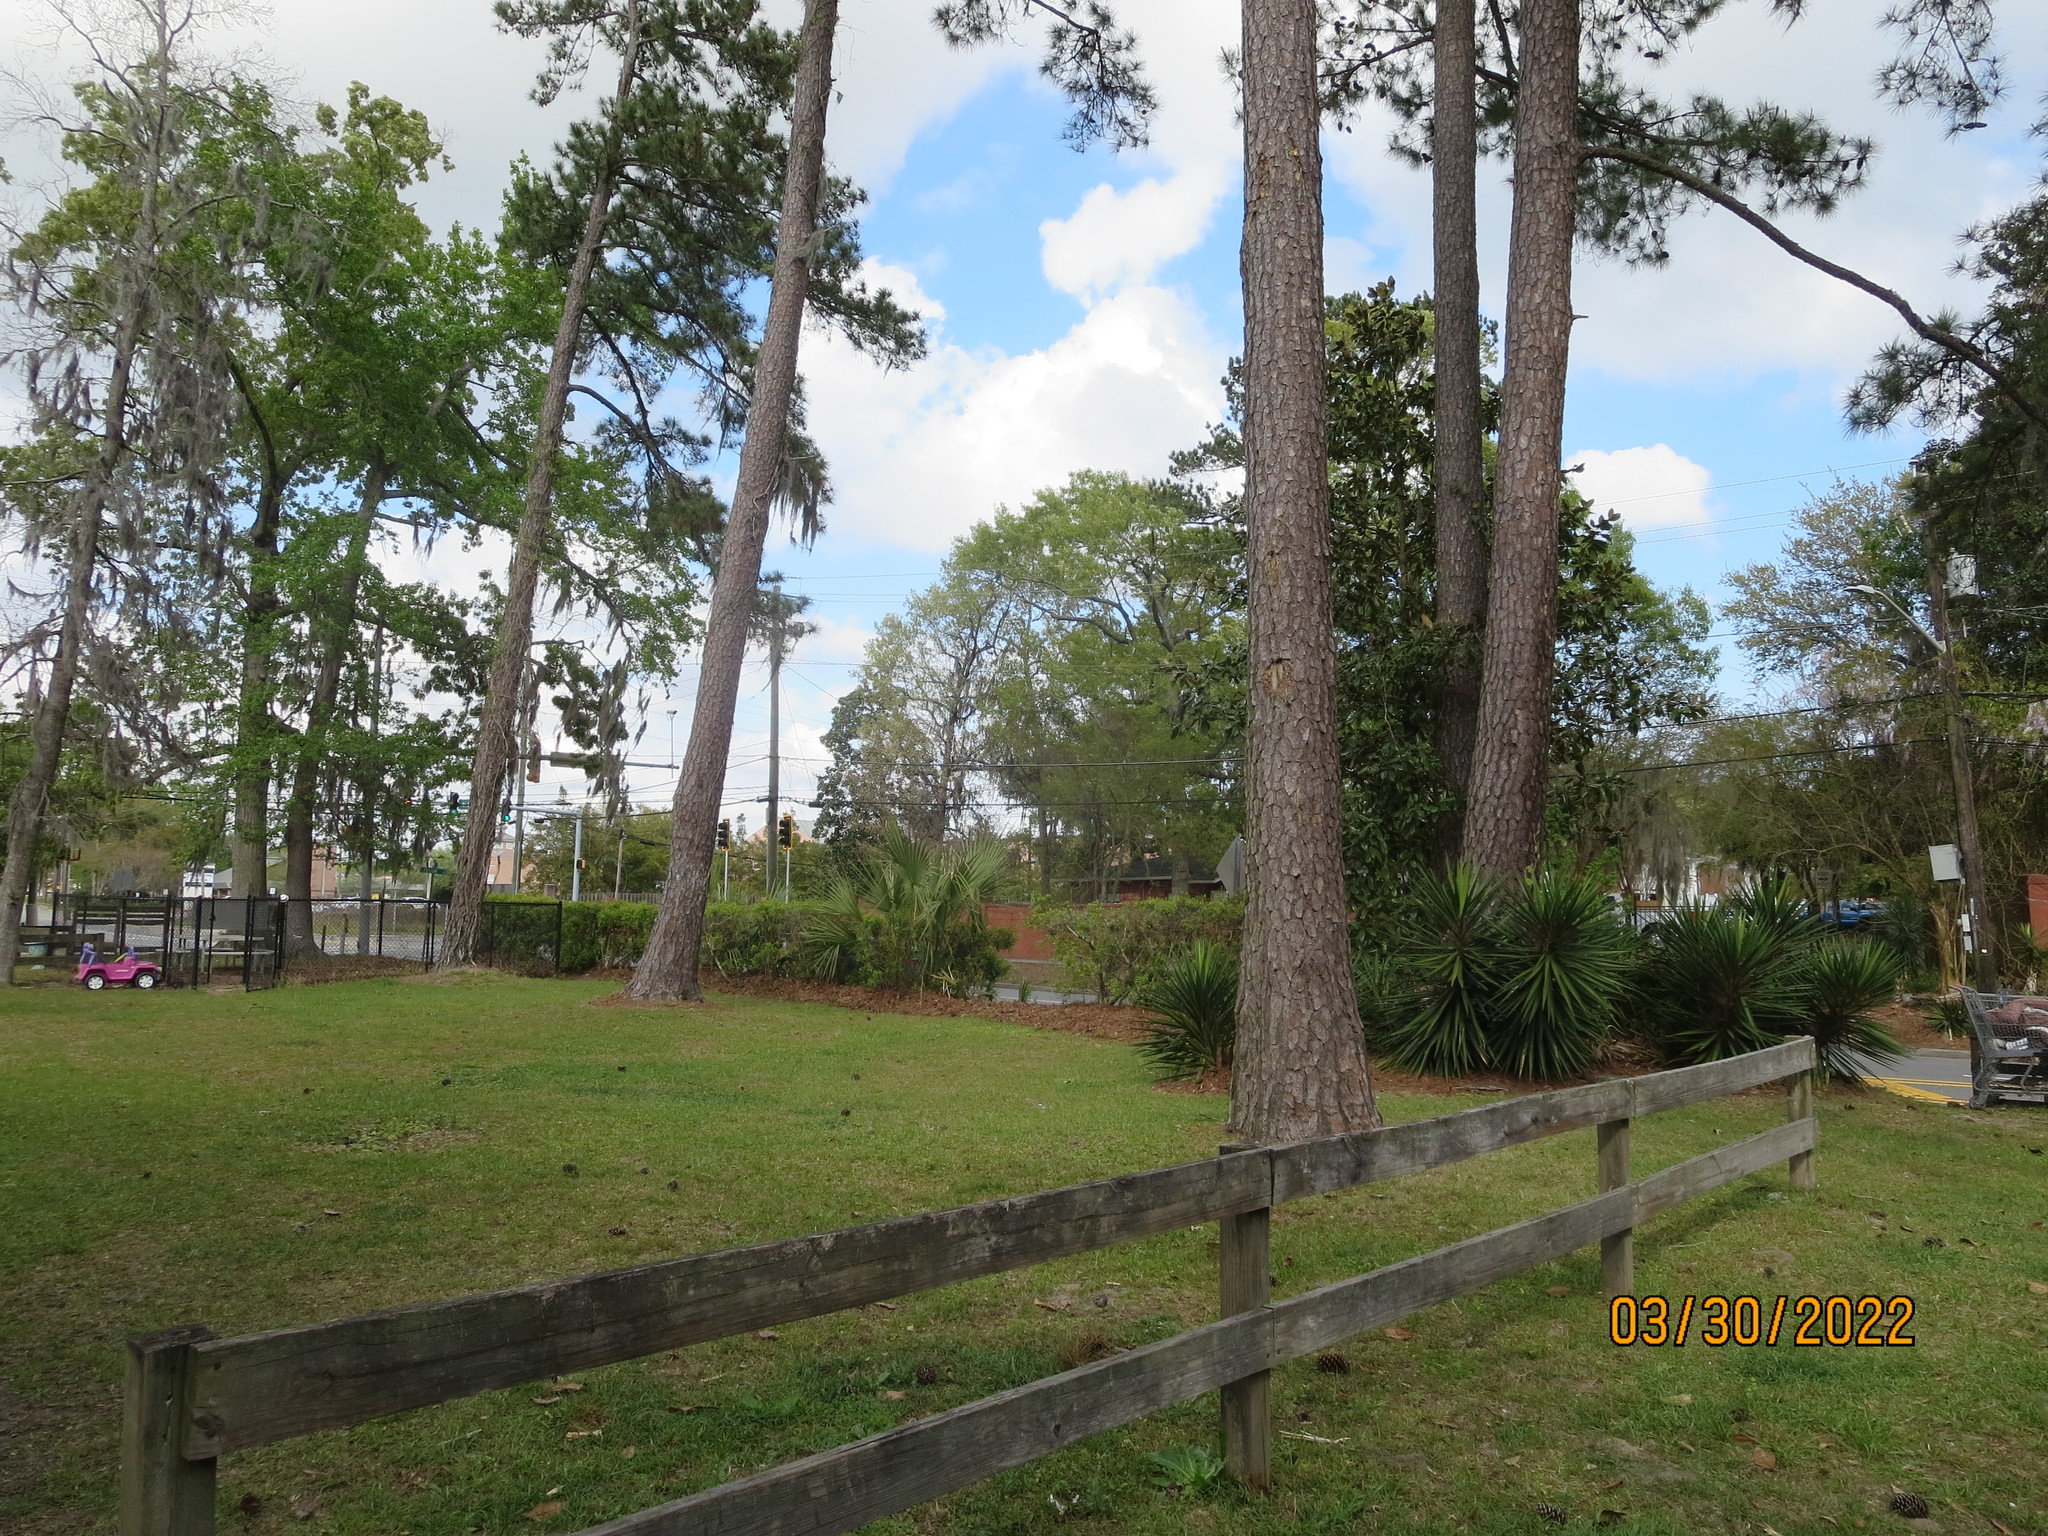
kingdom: Plantae
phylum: Tracheophyta
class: Pinopsida
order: Pinales
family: Pinaceae
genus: Pinus
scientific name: Pinus taeda
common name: Loblolly pine
